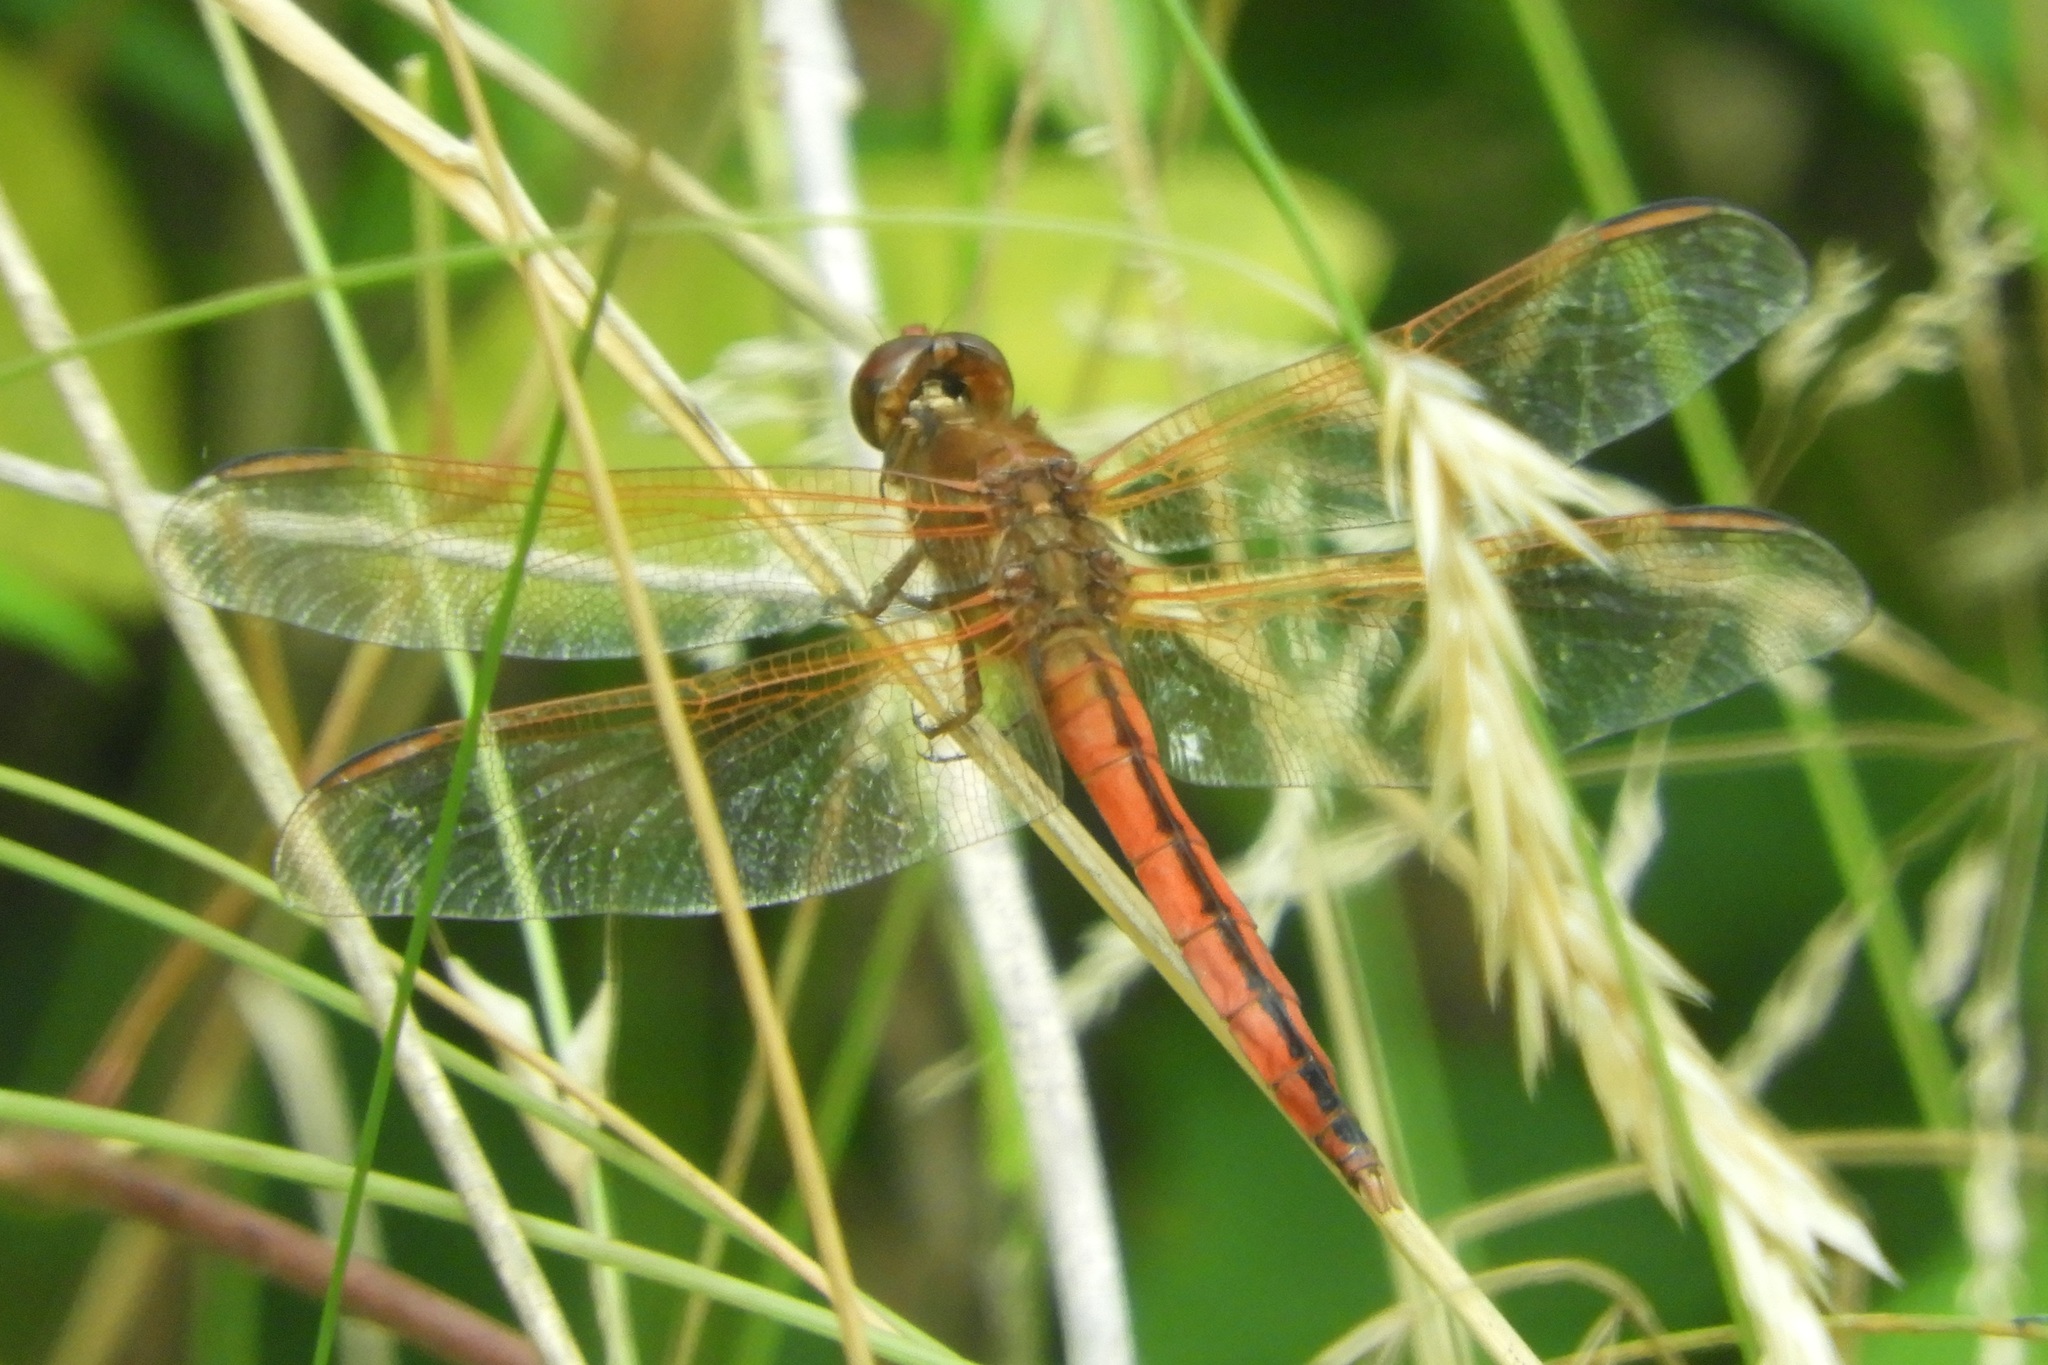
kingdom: Animalia
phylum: Arthropoda
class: Insecta
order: Odonata
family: Libellulidae
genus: Libellula
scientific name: Libellula needhami
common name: Needham's skimmer
